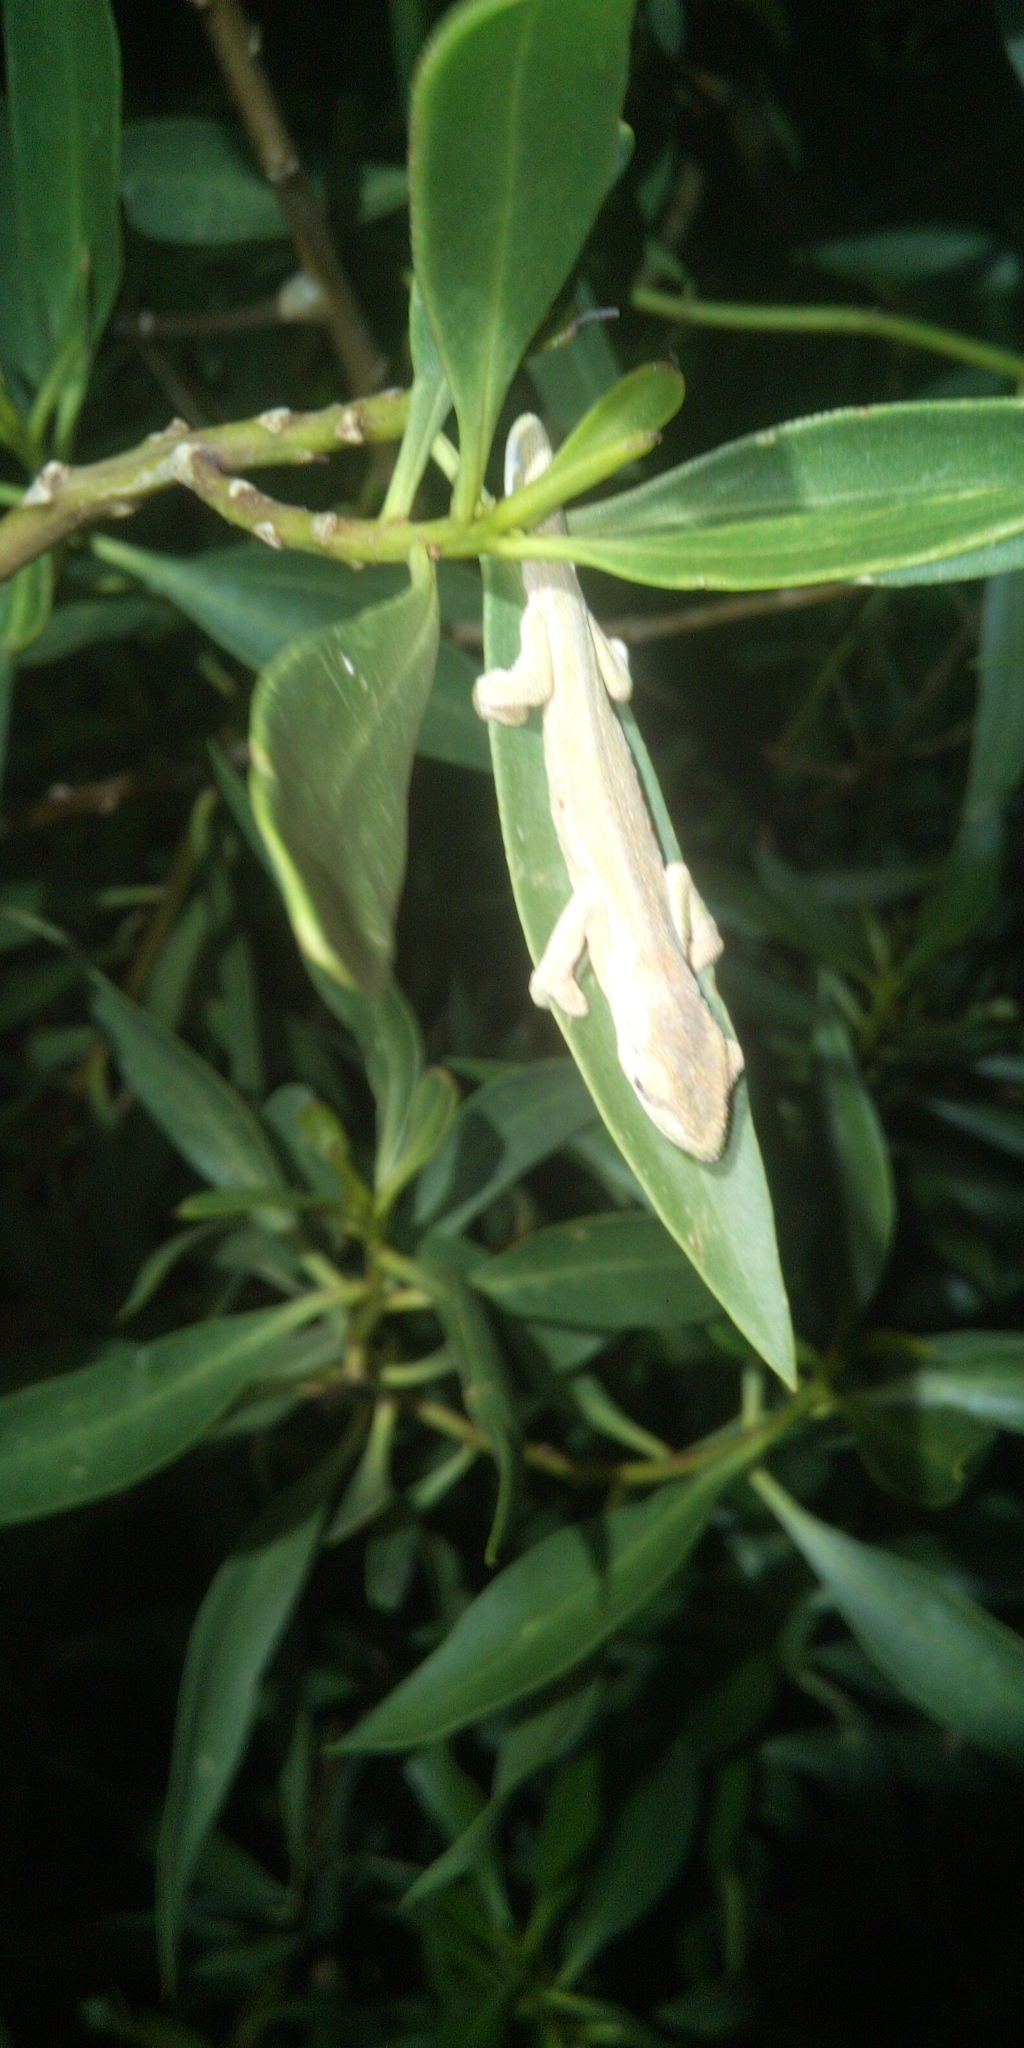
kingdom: Animalia
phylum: Chordata
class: Squamata
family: Chamaeleonidae
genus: Bradypodion
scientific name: Bradypodion pumilum
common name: Cape dwarf chameleon
